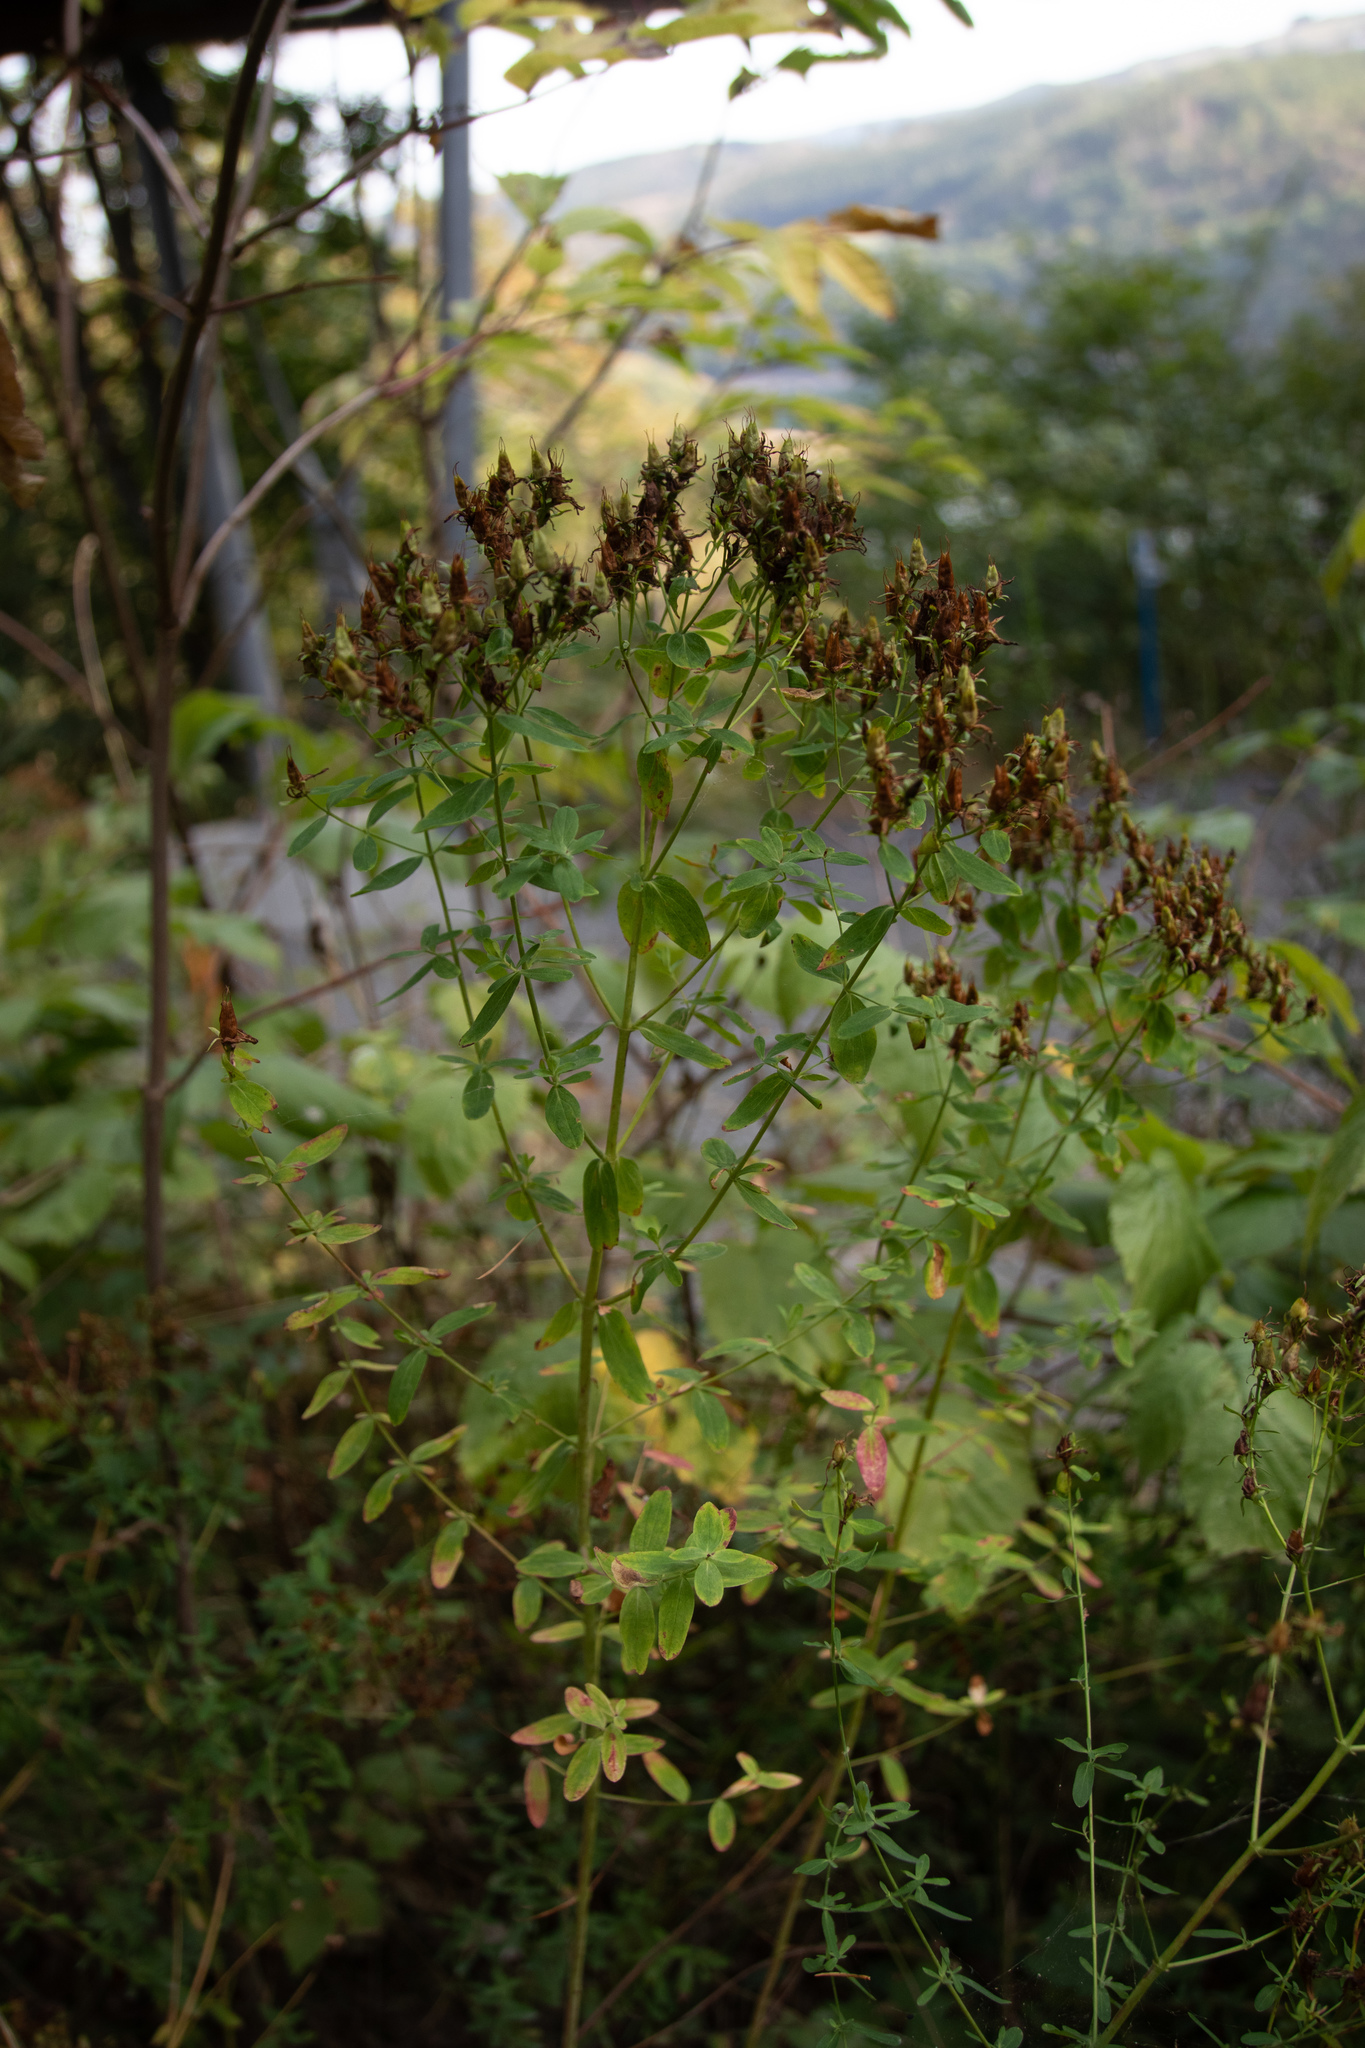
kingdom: Plantae
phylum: Tracheophyta
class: Magnoliopsida
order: Malpighiales
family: Hypericaceae
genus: Hypericum
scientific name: Hypericum perforatum
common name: Common st. johnswort
